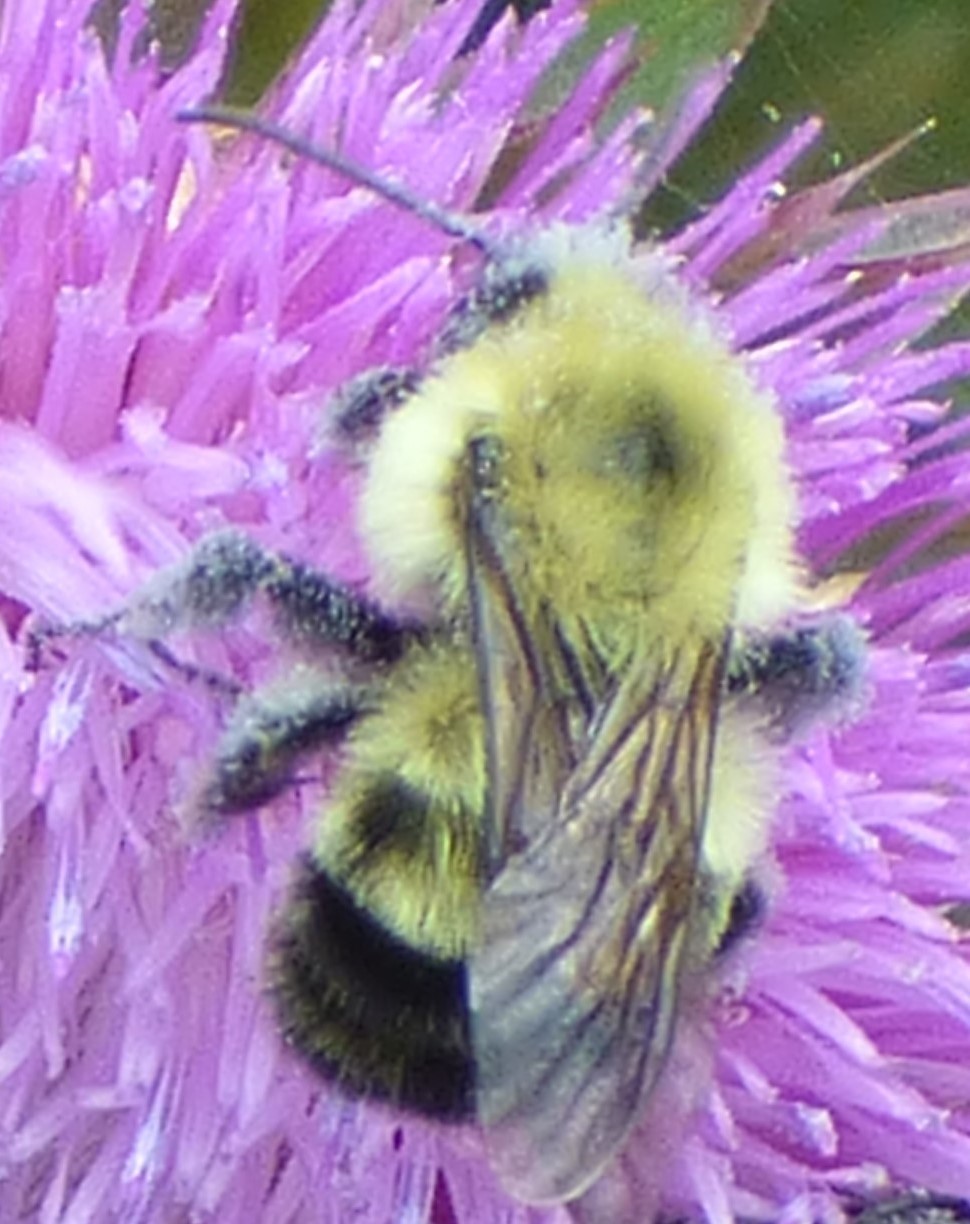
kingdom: Animalia
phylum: Arthropoda
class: Insecta
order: Hymenoptera
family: Apidae
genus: Bombus
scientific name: Bombus bimaculatus
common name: Two-spotted bumble bee
